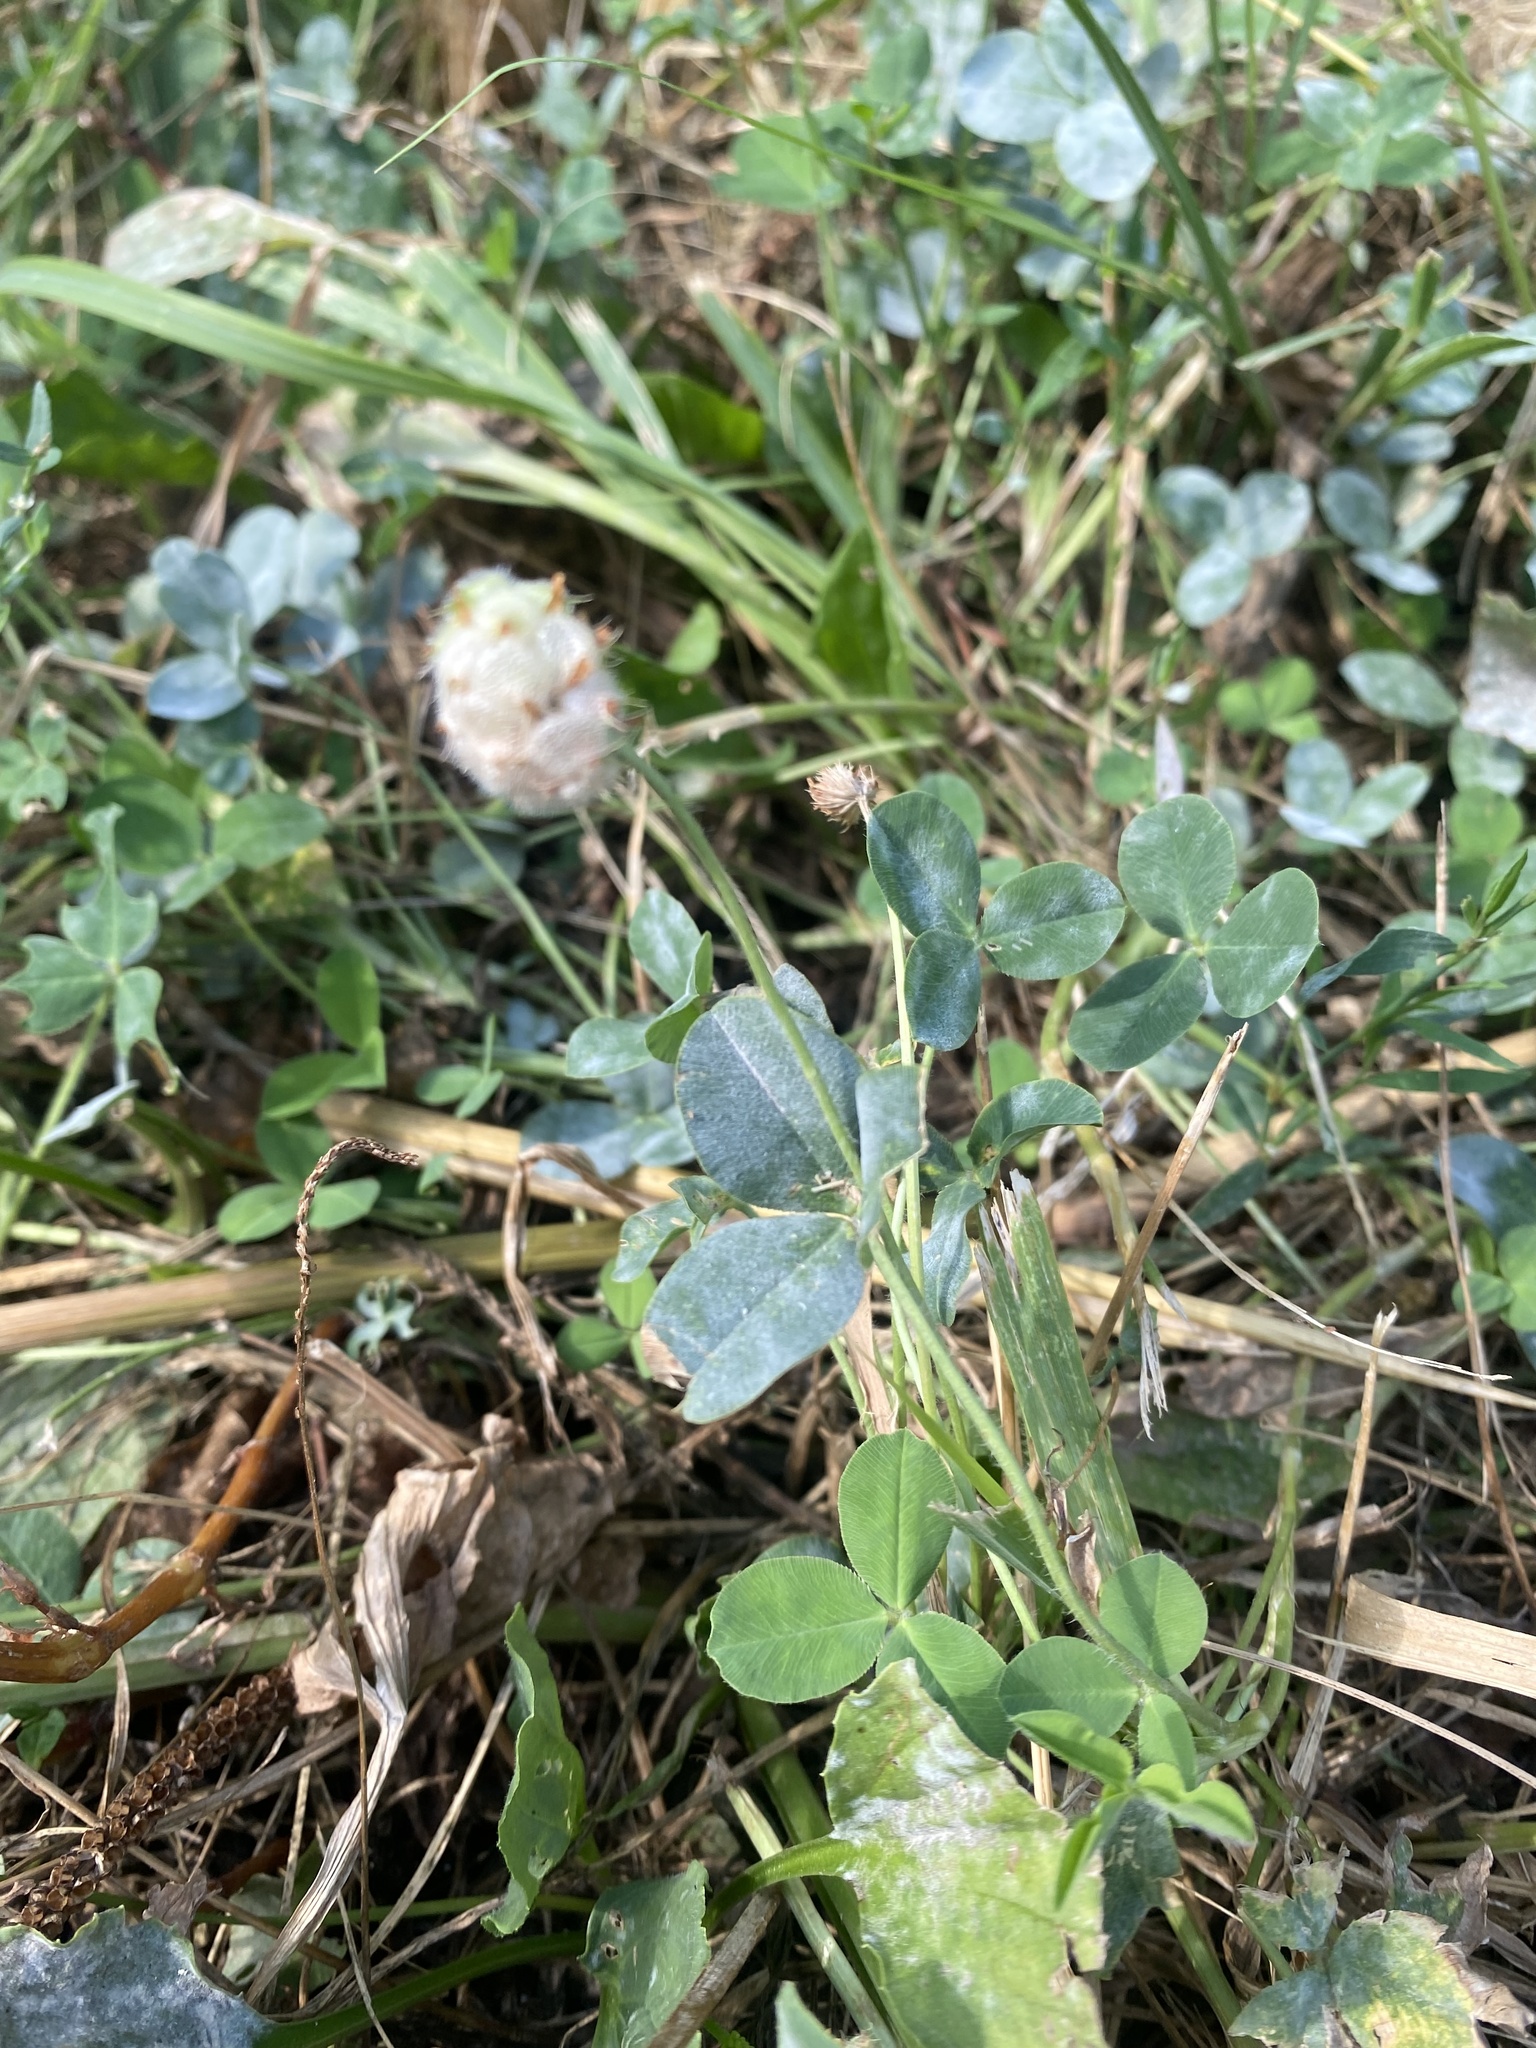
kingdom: Plantae
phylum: Tracheophyta
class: Magnoliopsida
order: Fabales
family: Fabaceae
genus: Trifolium
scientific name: Trifolium fragiferum
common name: Strawberry clover
